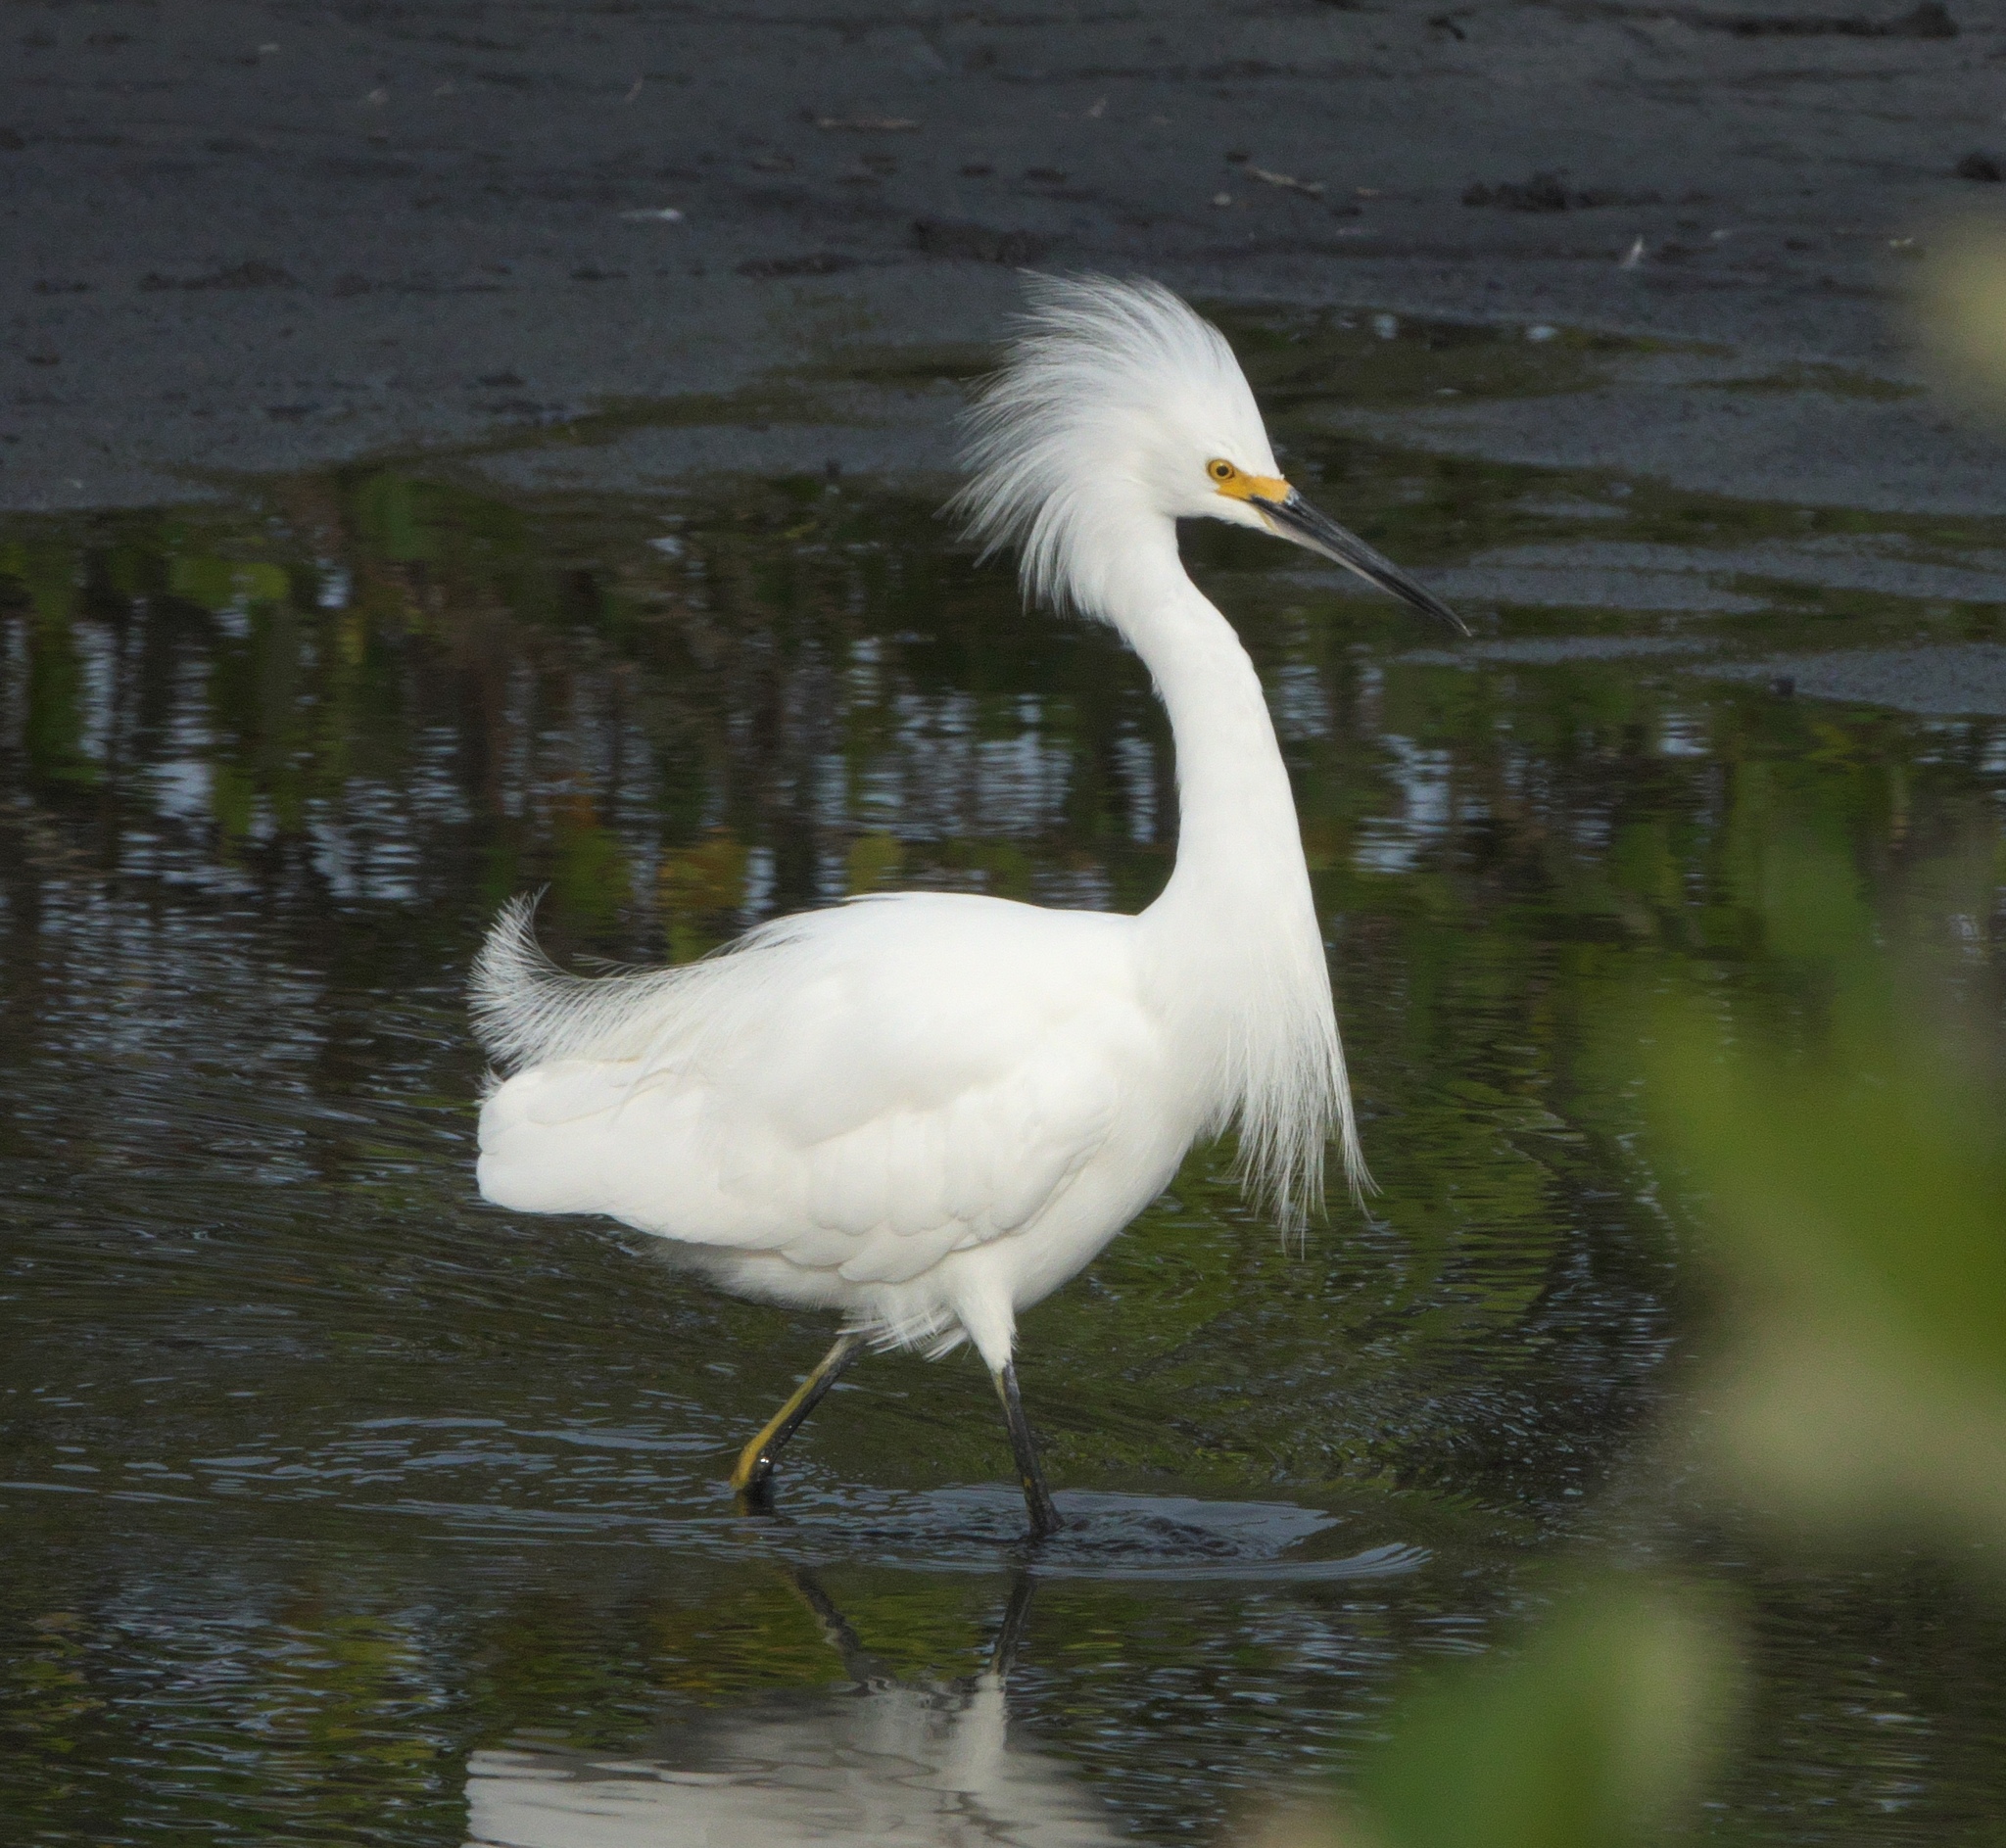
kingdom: Animalia
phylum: Chordata
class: Aves
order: Pelecaniformes
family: Ardeidae
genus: Egretta
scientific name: Egretta thula
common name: Snowy egret
